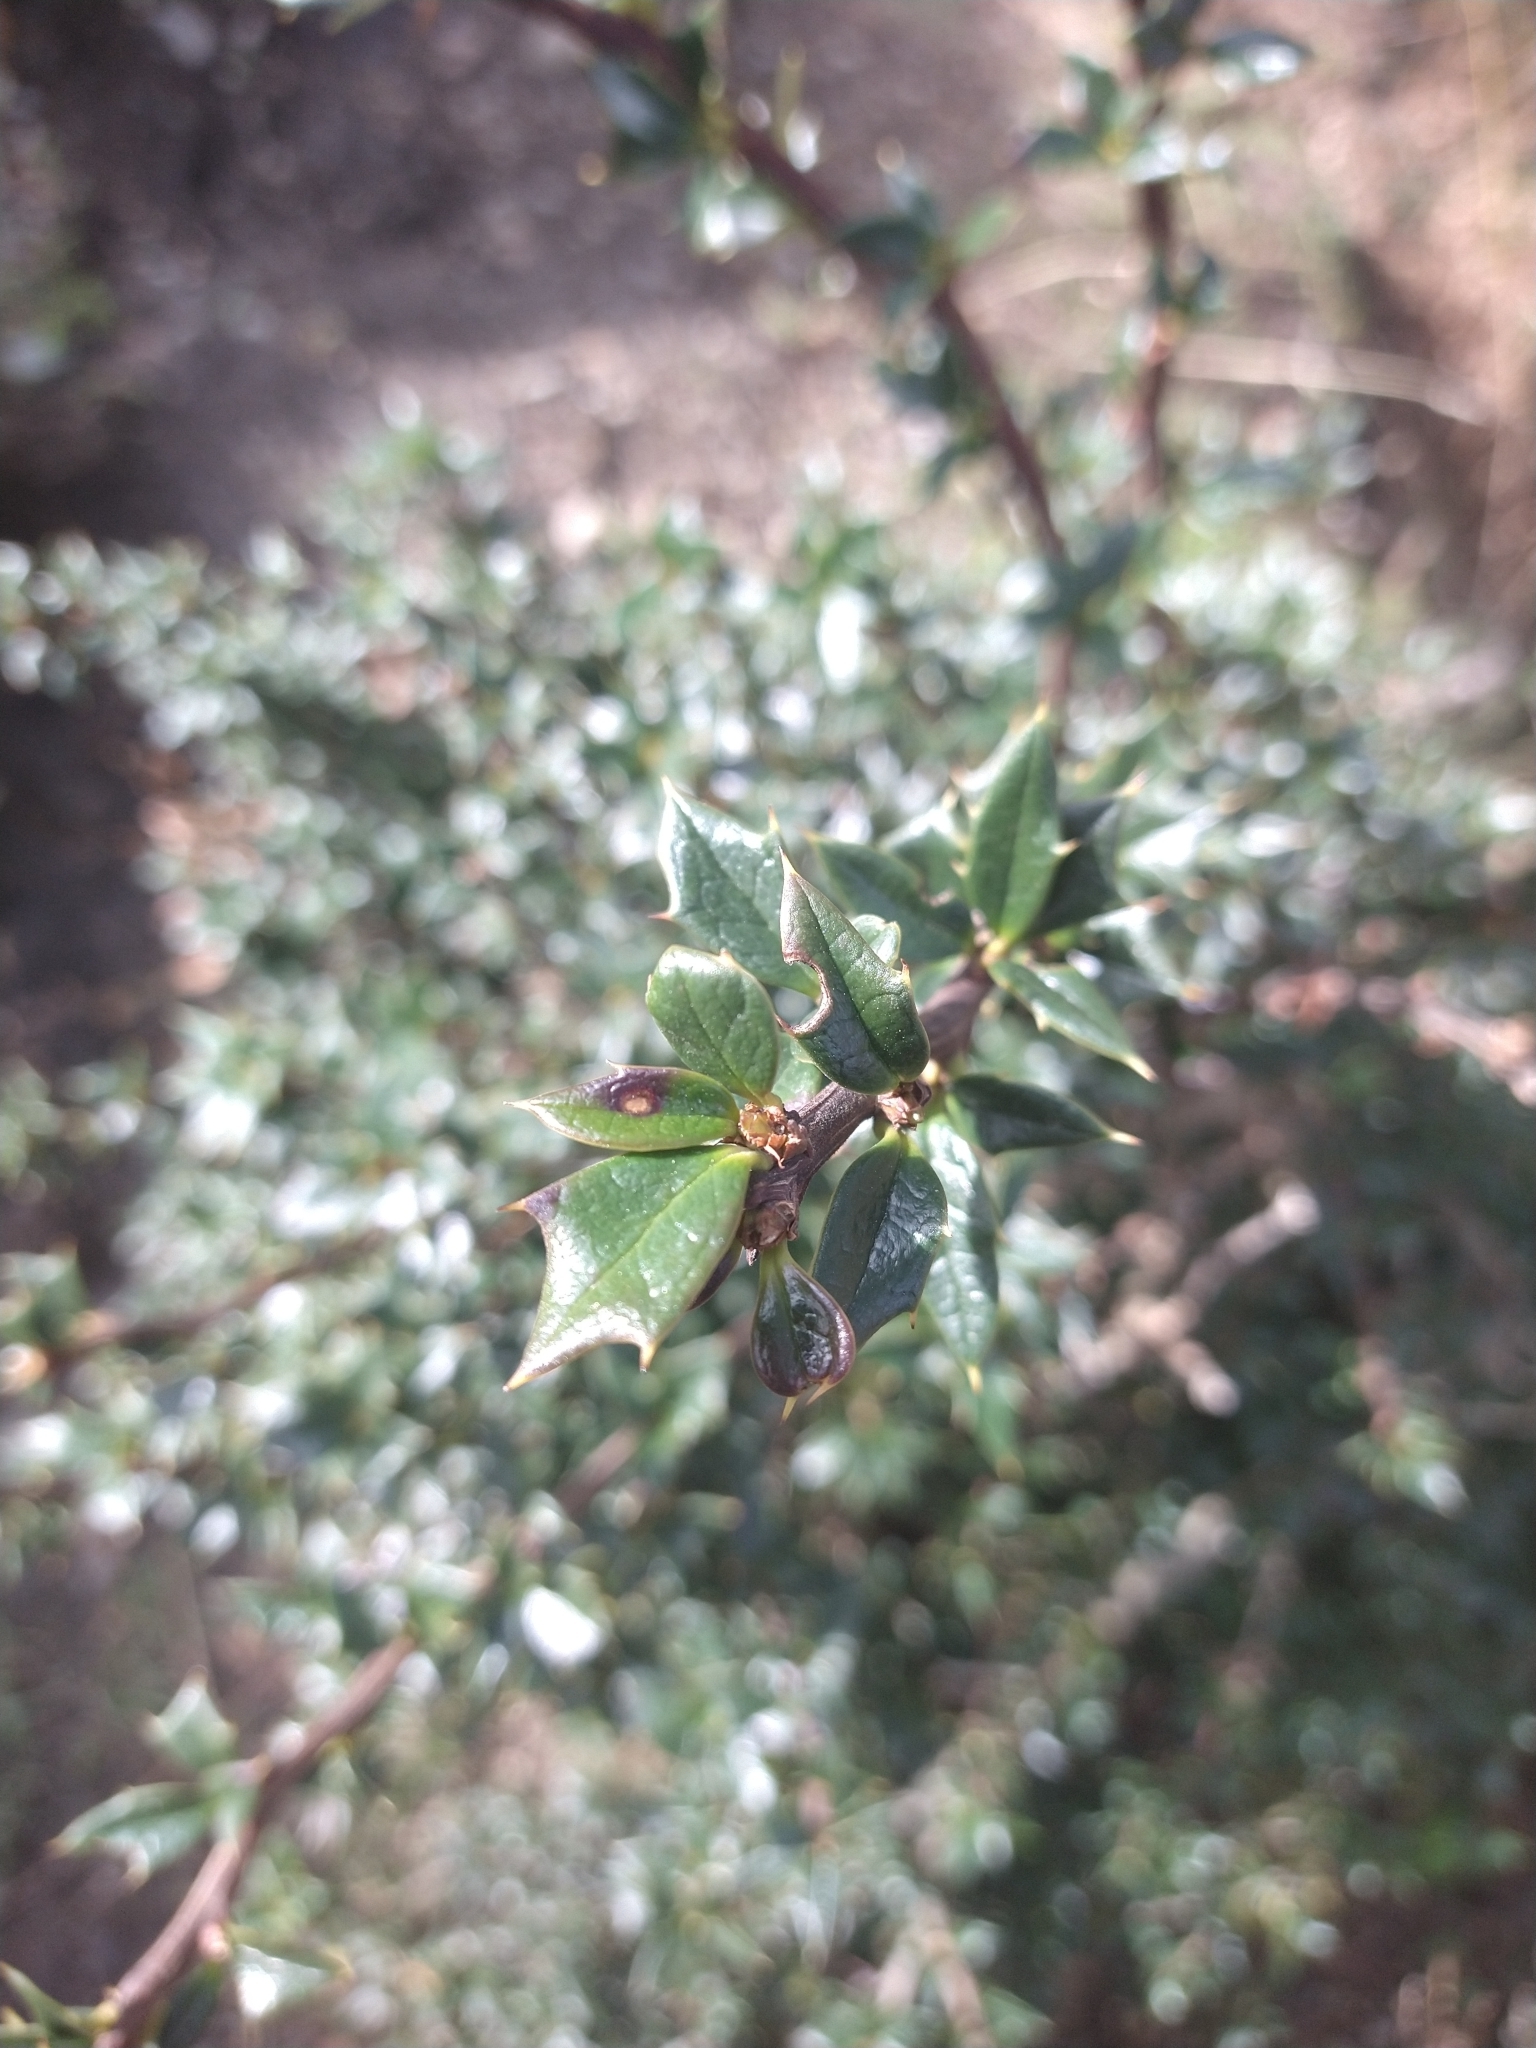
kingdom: Plantae
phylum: Tracheophyta
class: Magnoliopsida
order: Ranunculales
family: Berberidaceae
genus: Berberis
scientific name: Berberis ilicifolia
